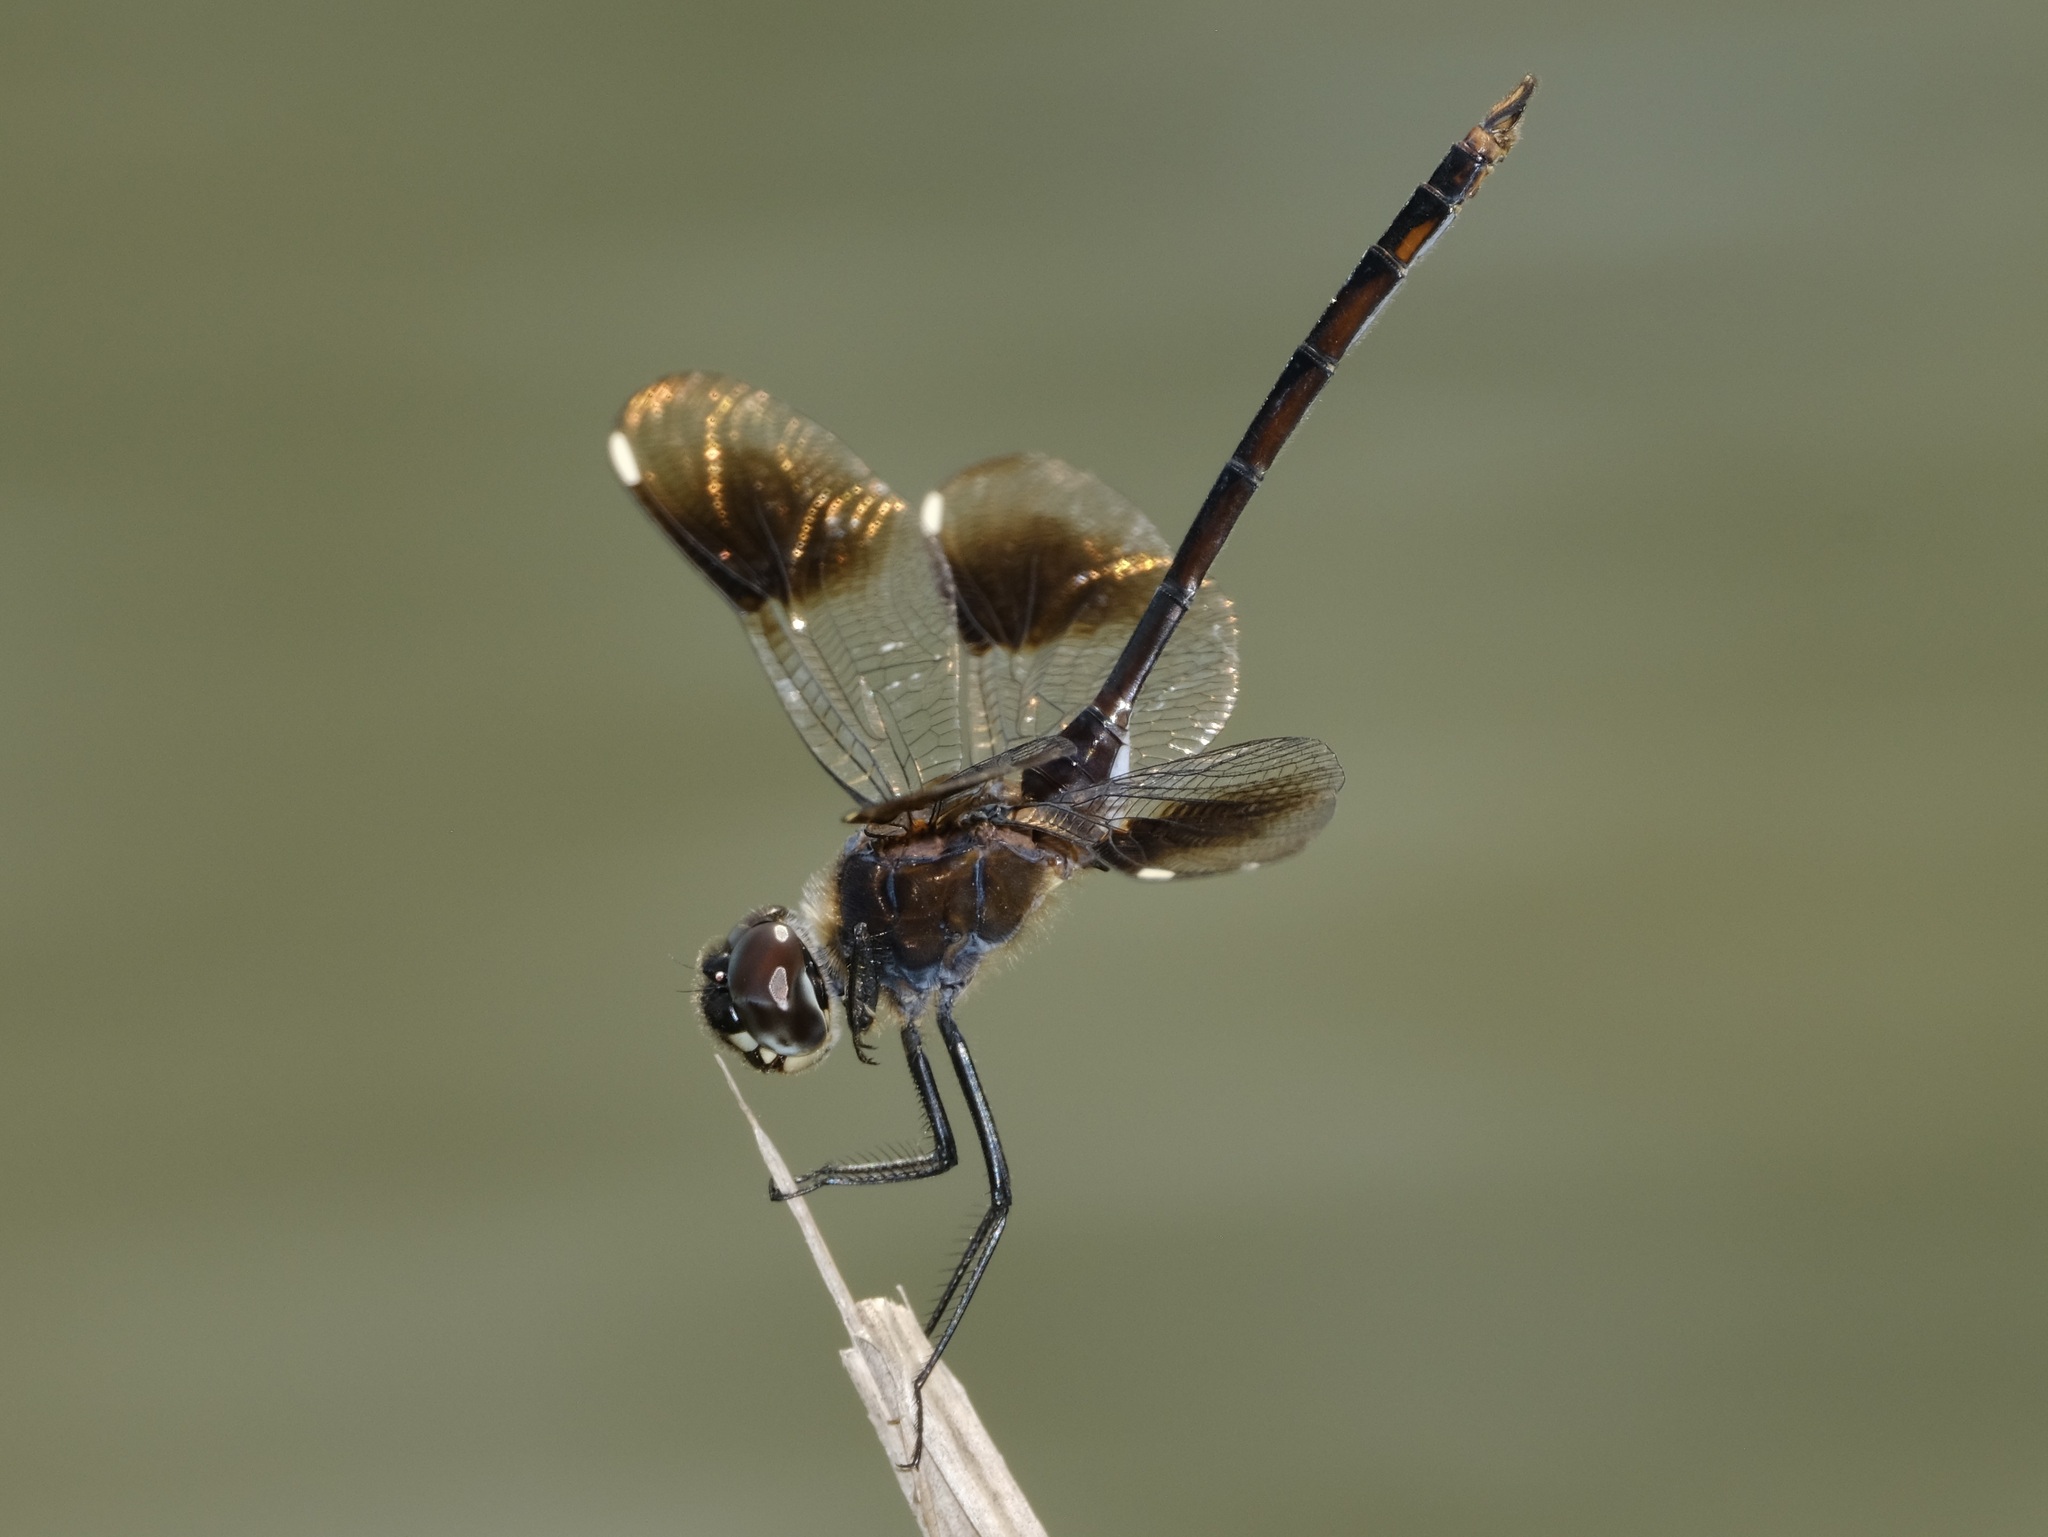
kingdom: Animalia
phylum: Arthropoda
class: Insecta
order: Odonata
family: Libellulidae
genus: Brachymesia
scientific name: Brachymesia gravida
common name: Four-spotted pennant
